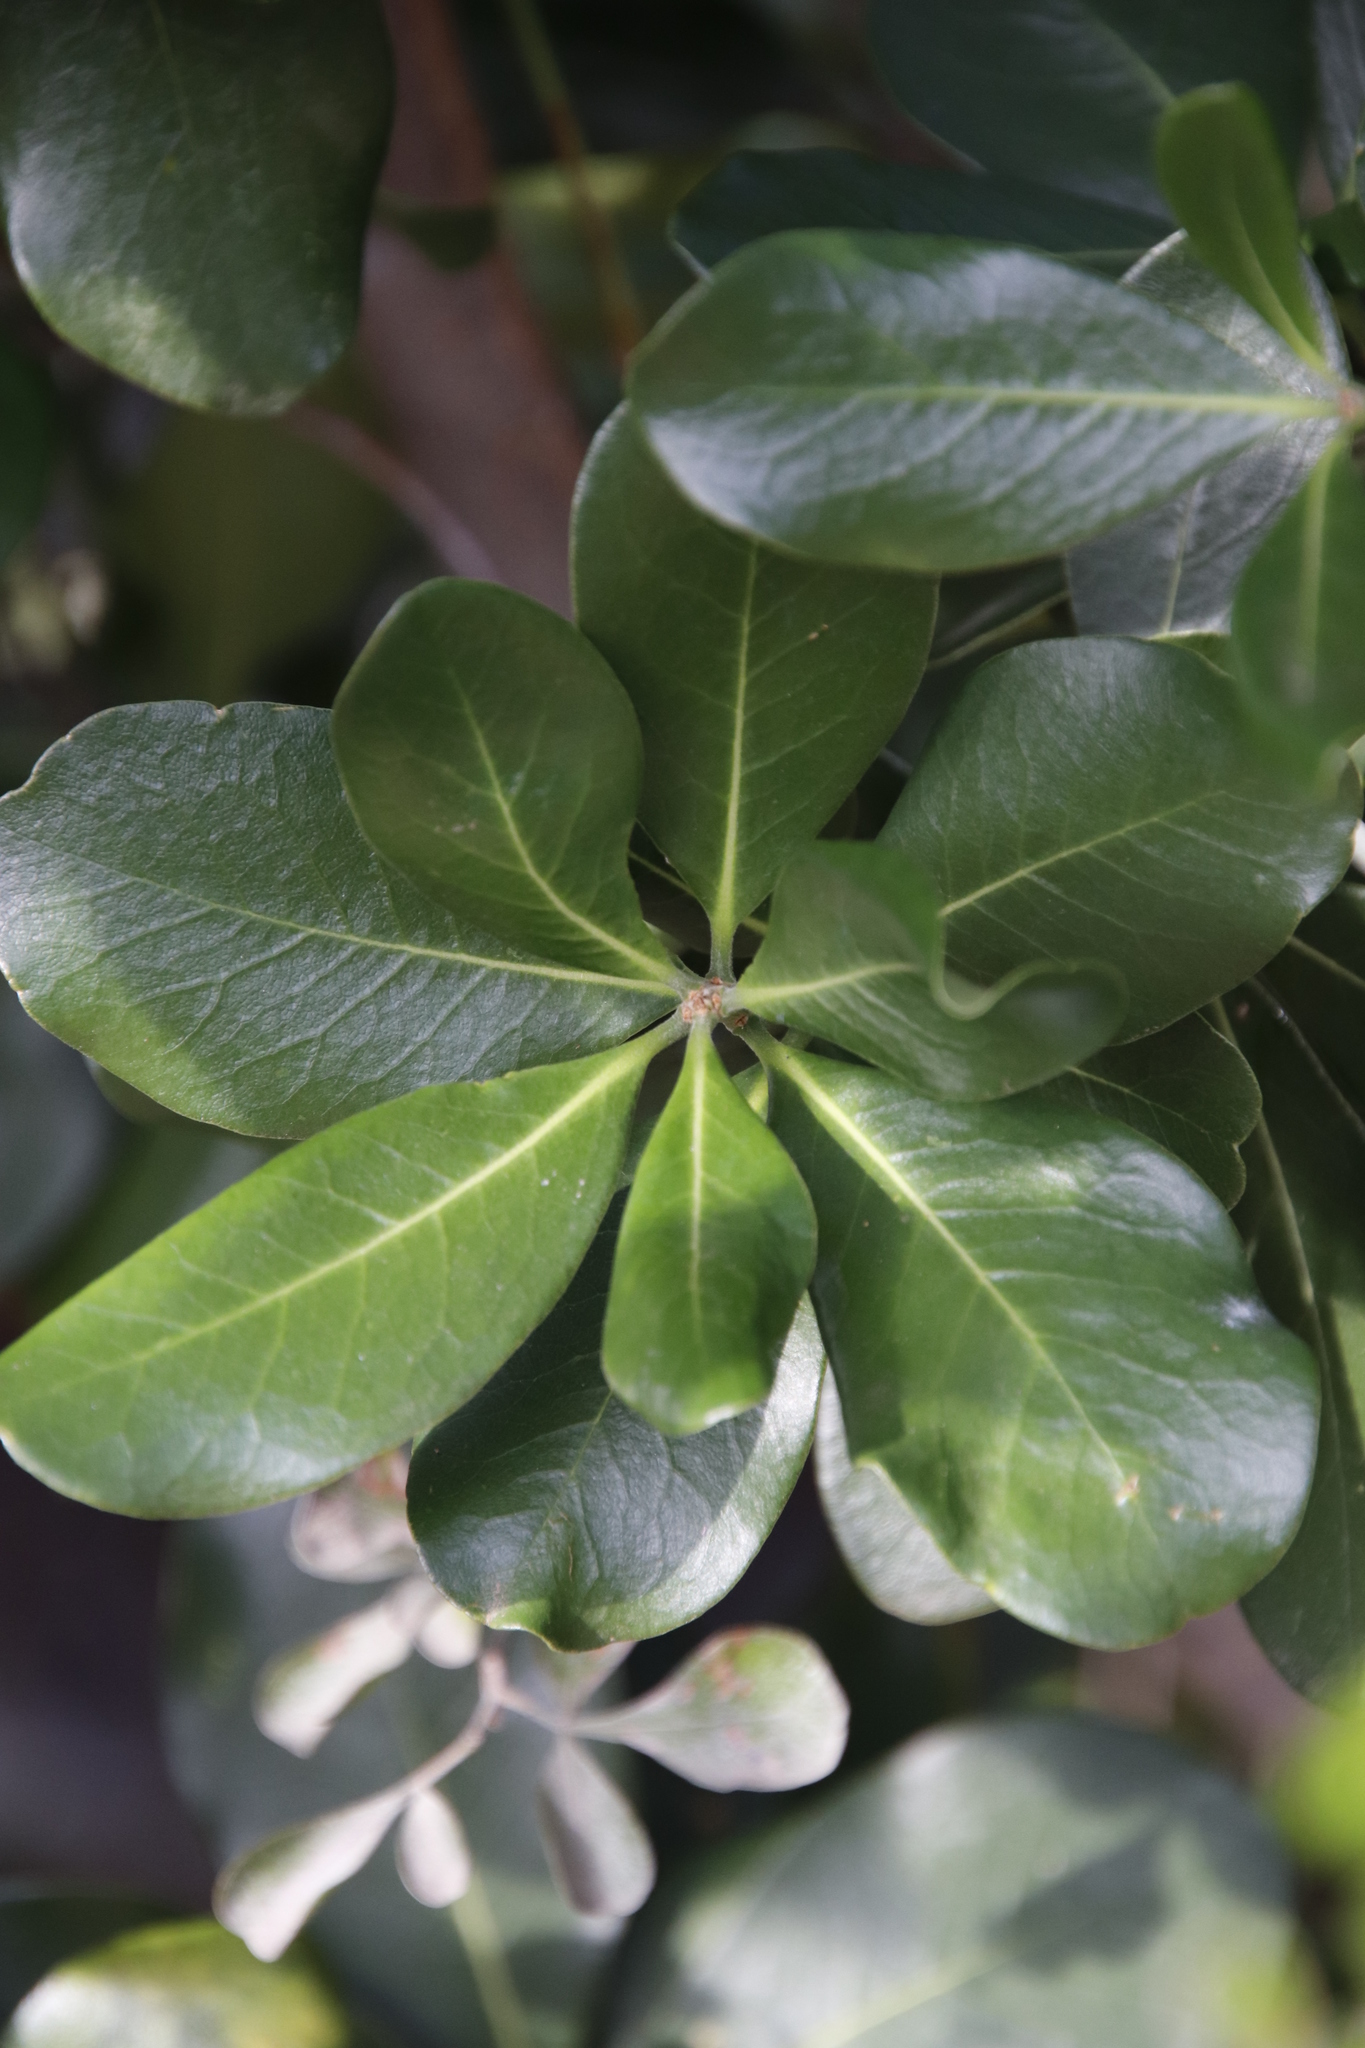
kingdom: Plantae
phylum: Tracheophyta
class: Magnoliopsida
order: Apiales
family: Pittosporaceae
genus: Pittosporum
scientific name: Pittosporum viridiflorum
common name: Cape cheesewood
